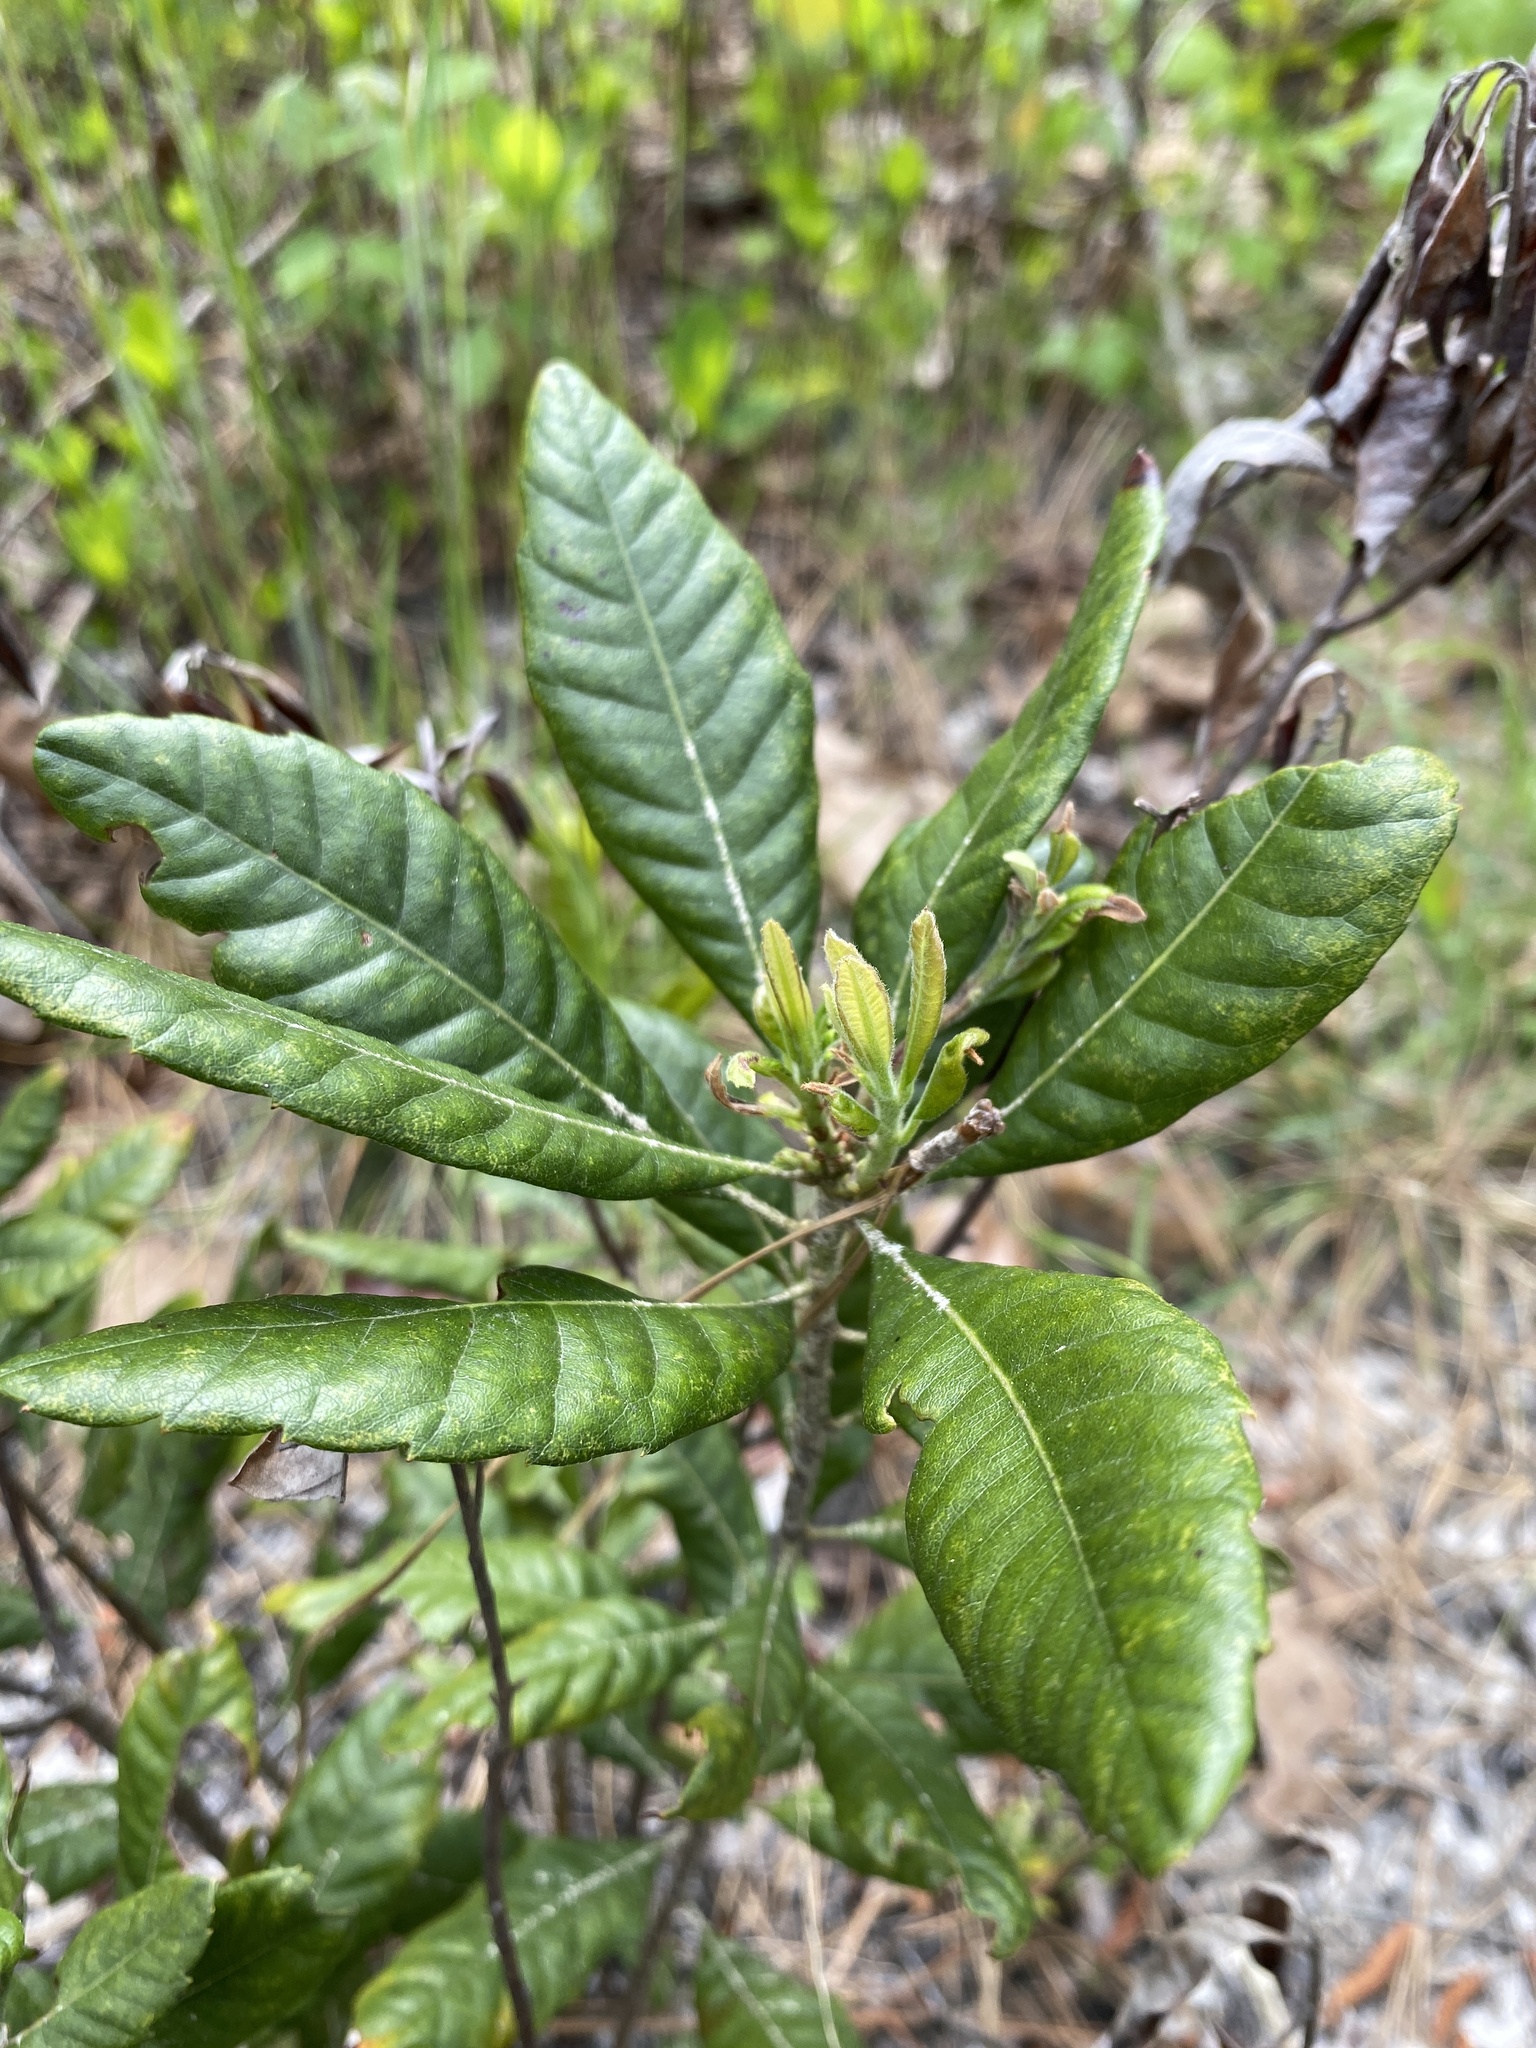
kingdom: Plantae
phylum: Tracheophyta
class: Magnoliopsida
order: Fagales
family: Myricaceae
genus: Morella
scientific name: Morella caroliniensis
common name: Evergreen bayberry
